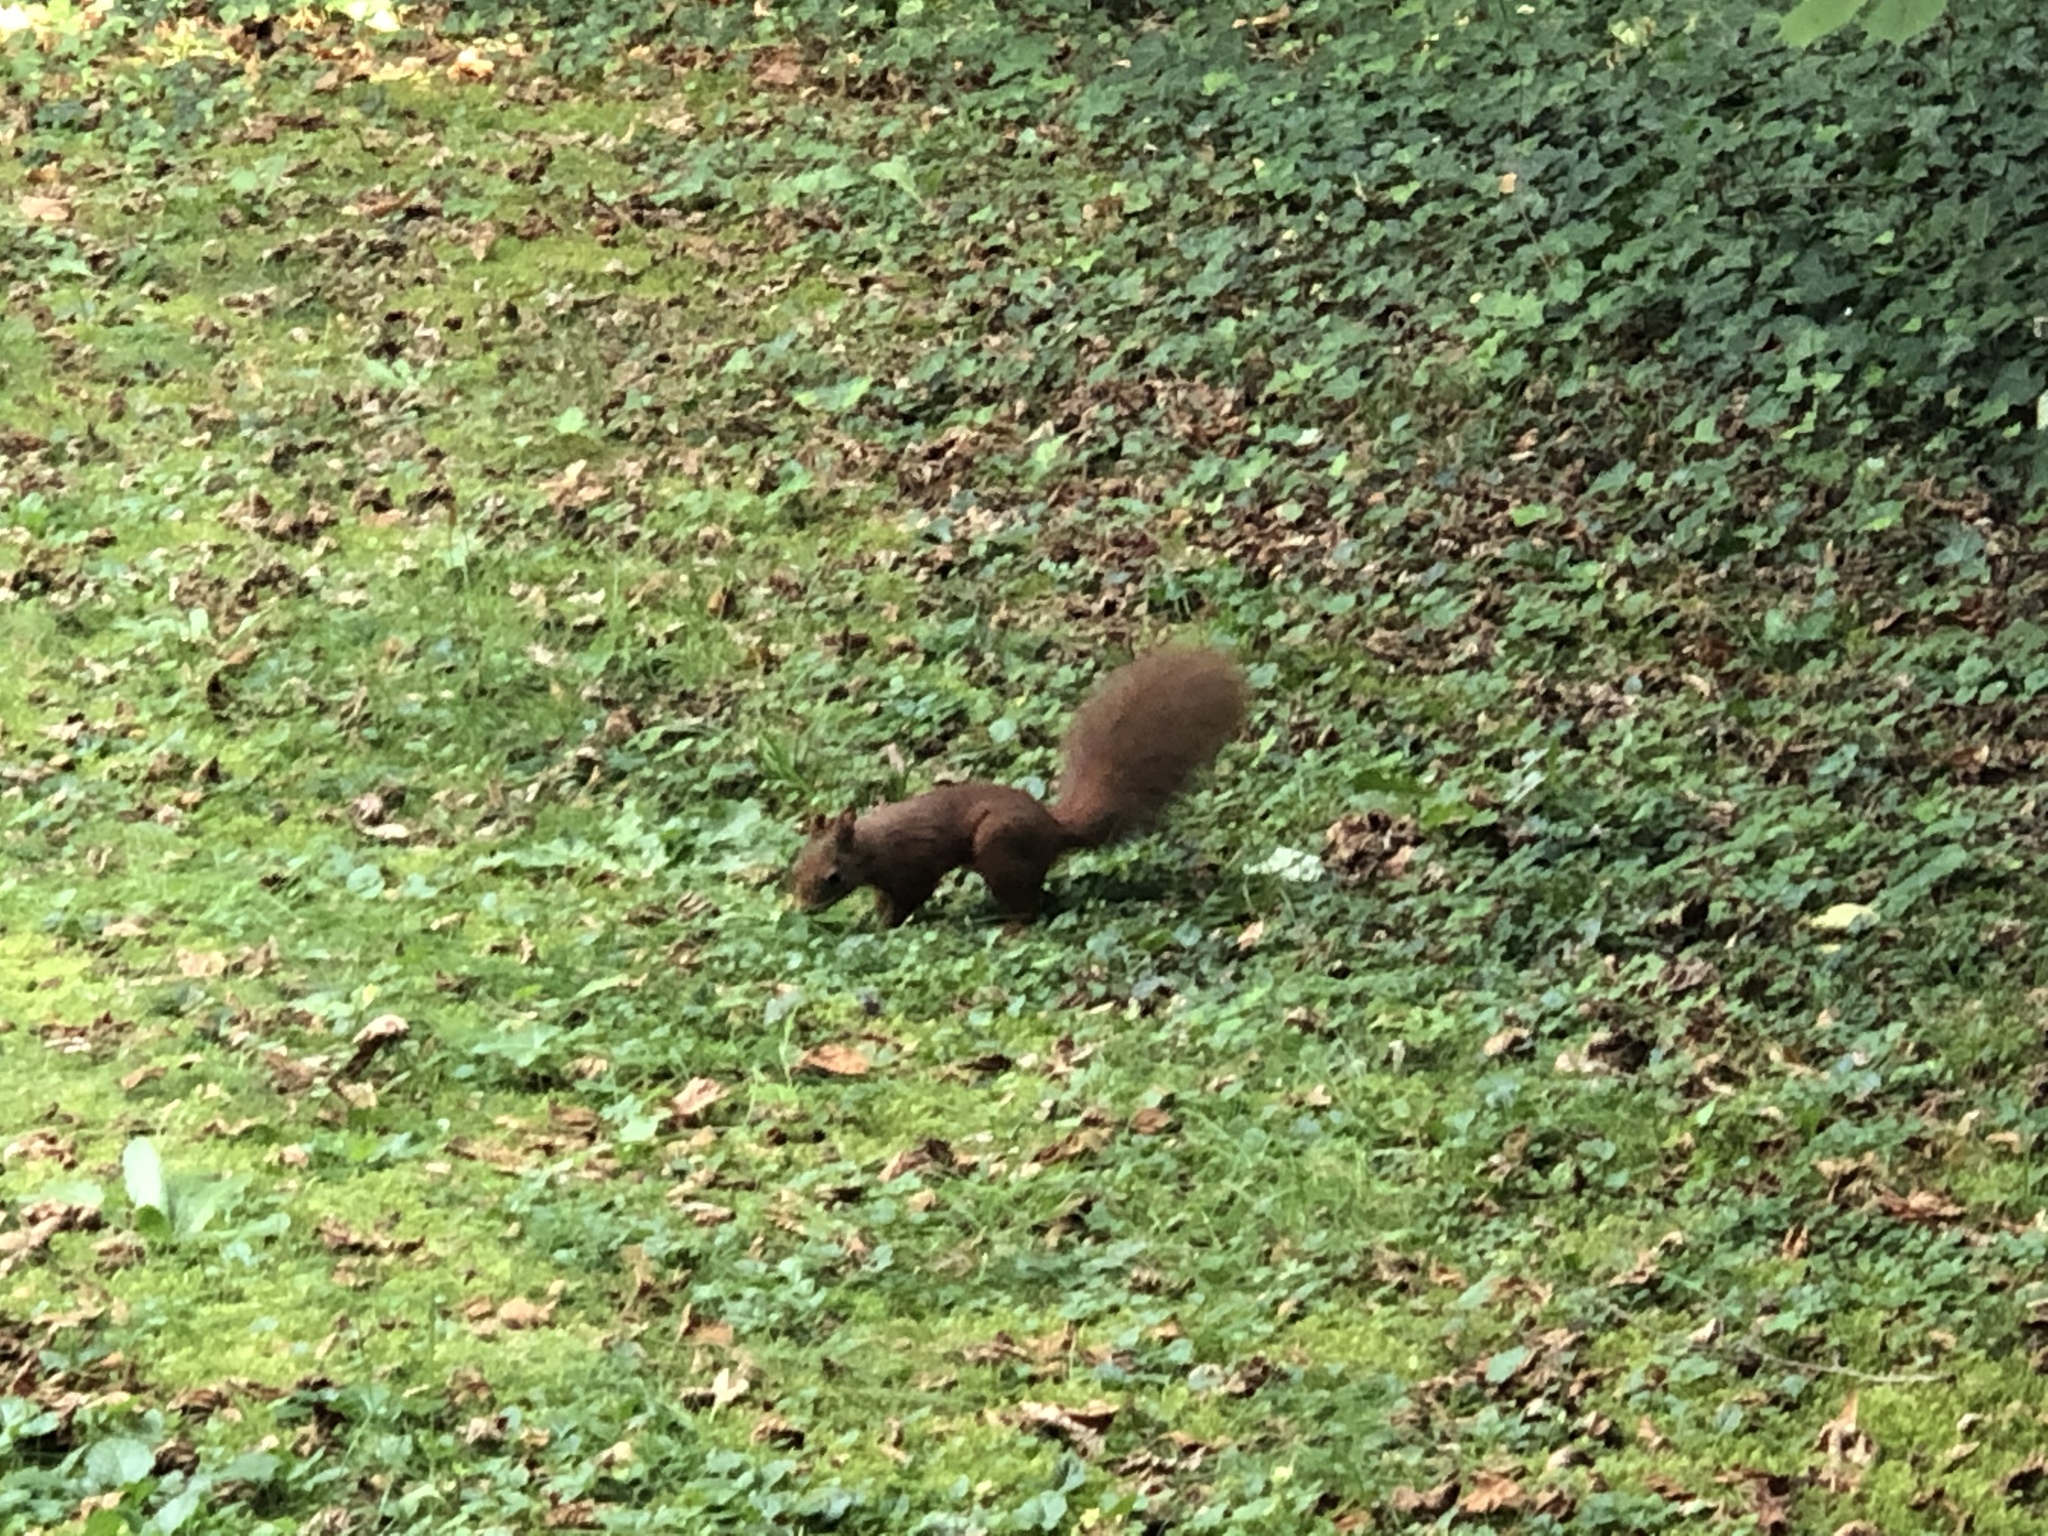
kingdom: Animalia
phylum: Chordata
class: Mammalia
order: Rodentia
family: Sciuridae
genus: Sciurus
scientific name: Sciurus vulgaris
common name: Eurasian red squirrel
